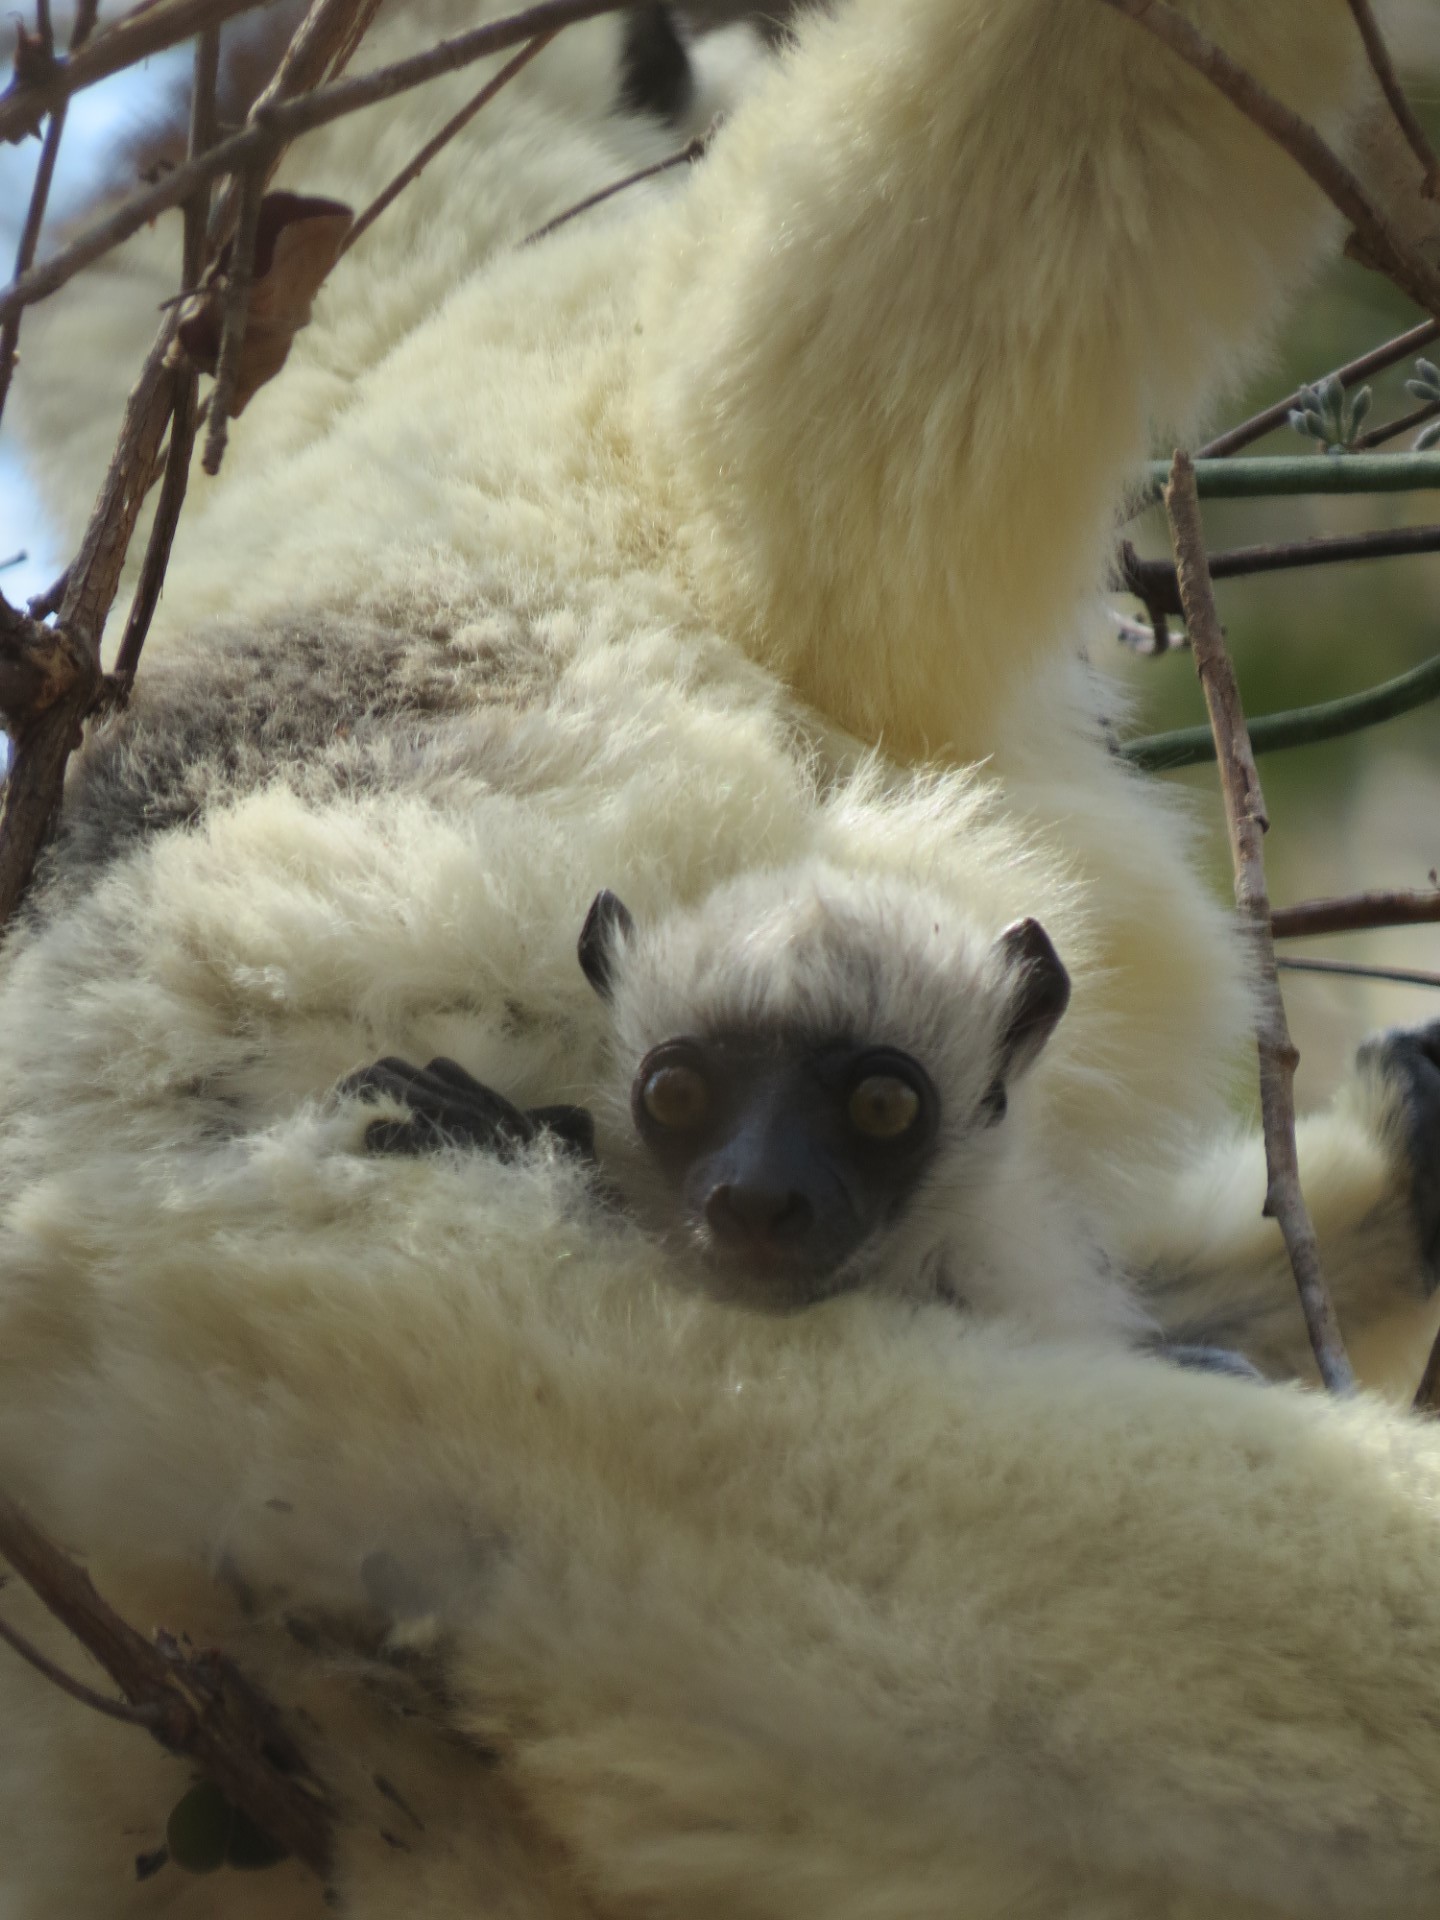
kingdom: Animalia
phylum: Chordata
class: Mammalia
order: Primates
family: Indriidae
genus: Propithecus
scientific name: Propithecus verreauxi
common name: Verreaux's sifaka
